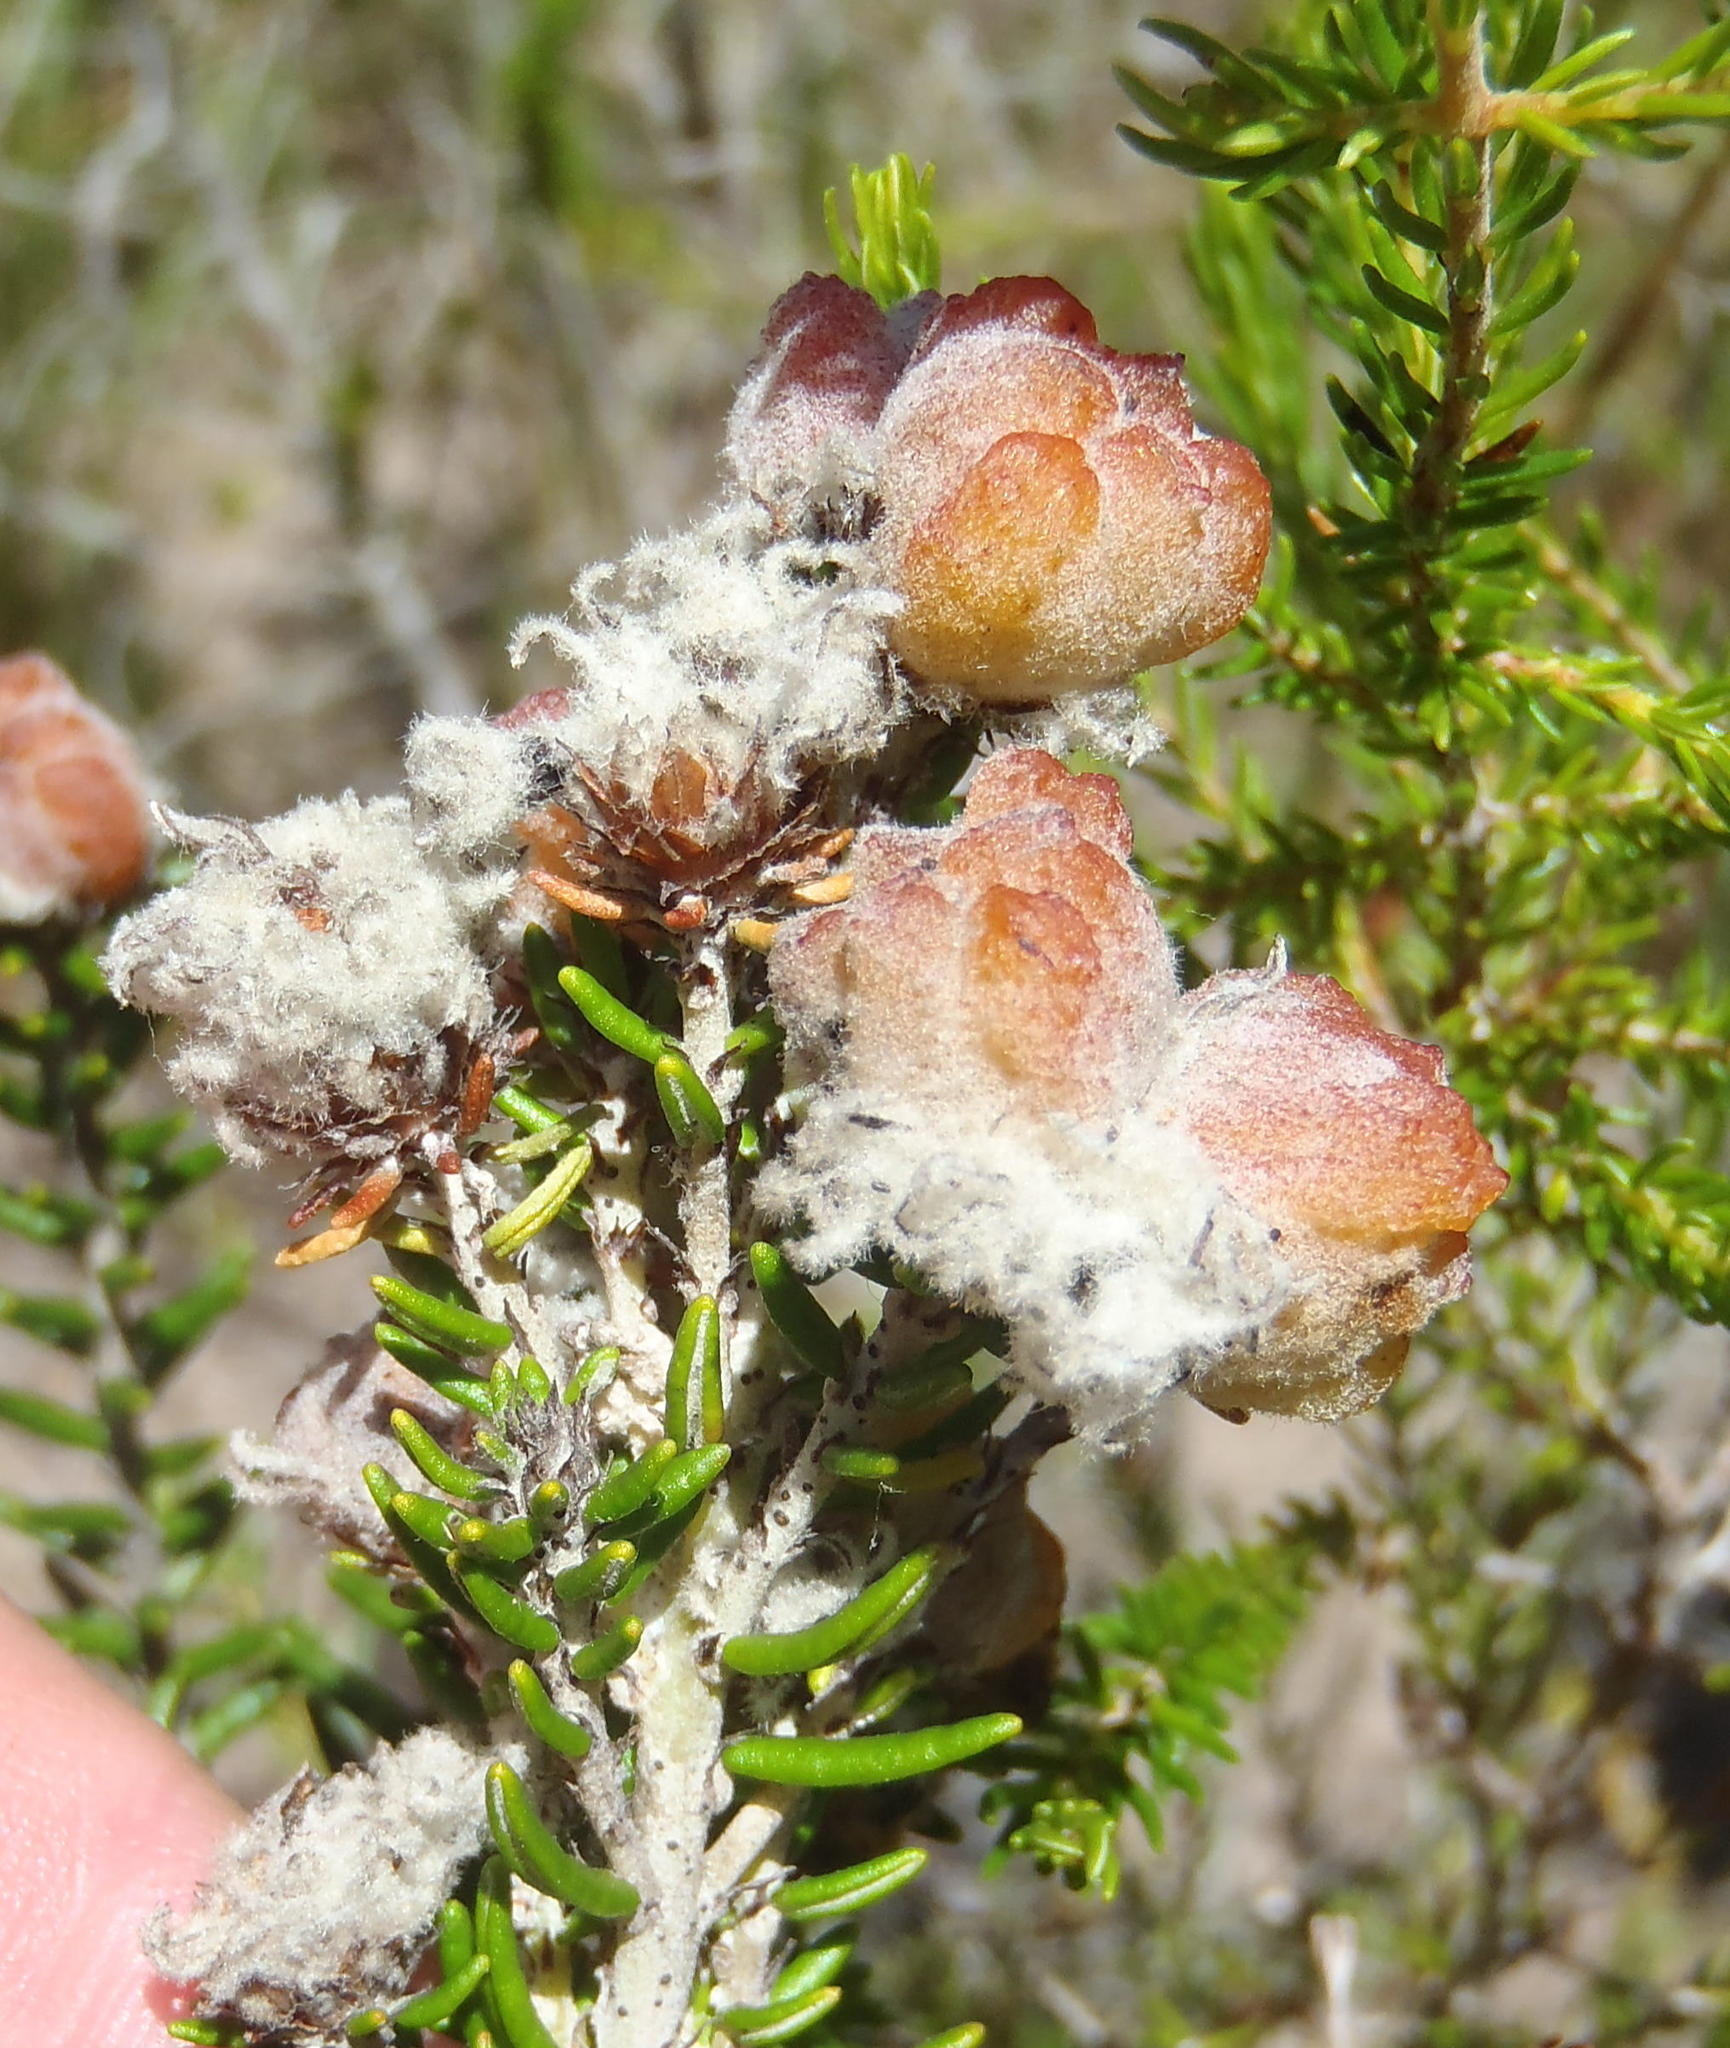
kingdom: Plantae
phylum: Tracheophyta
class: Magnoliopsida
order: Rosales
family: Rhamnaceae
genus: Trichocephalus
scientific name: Trichocephalus stipularis
